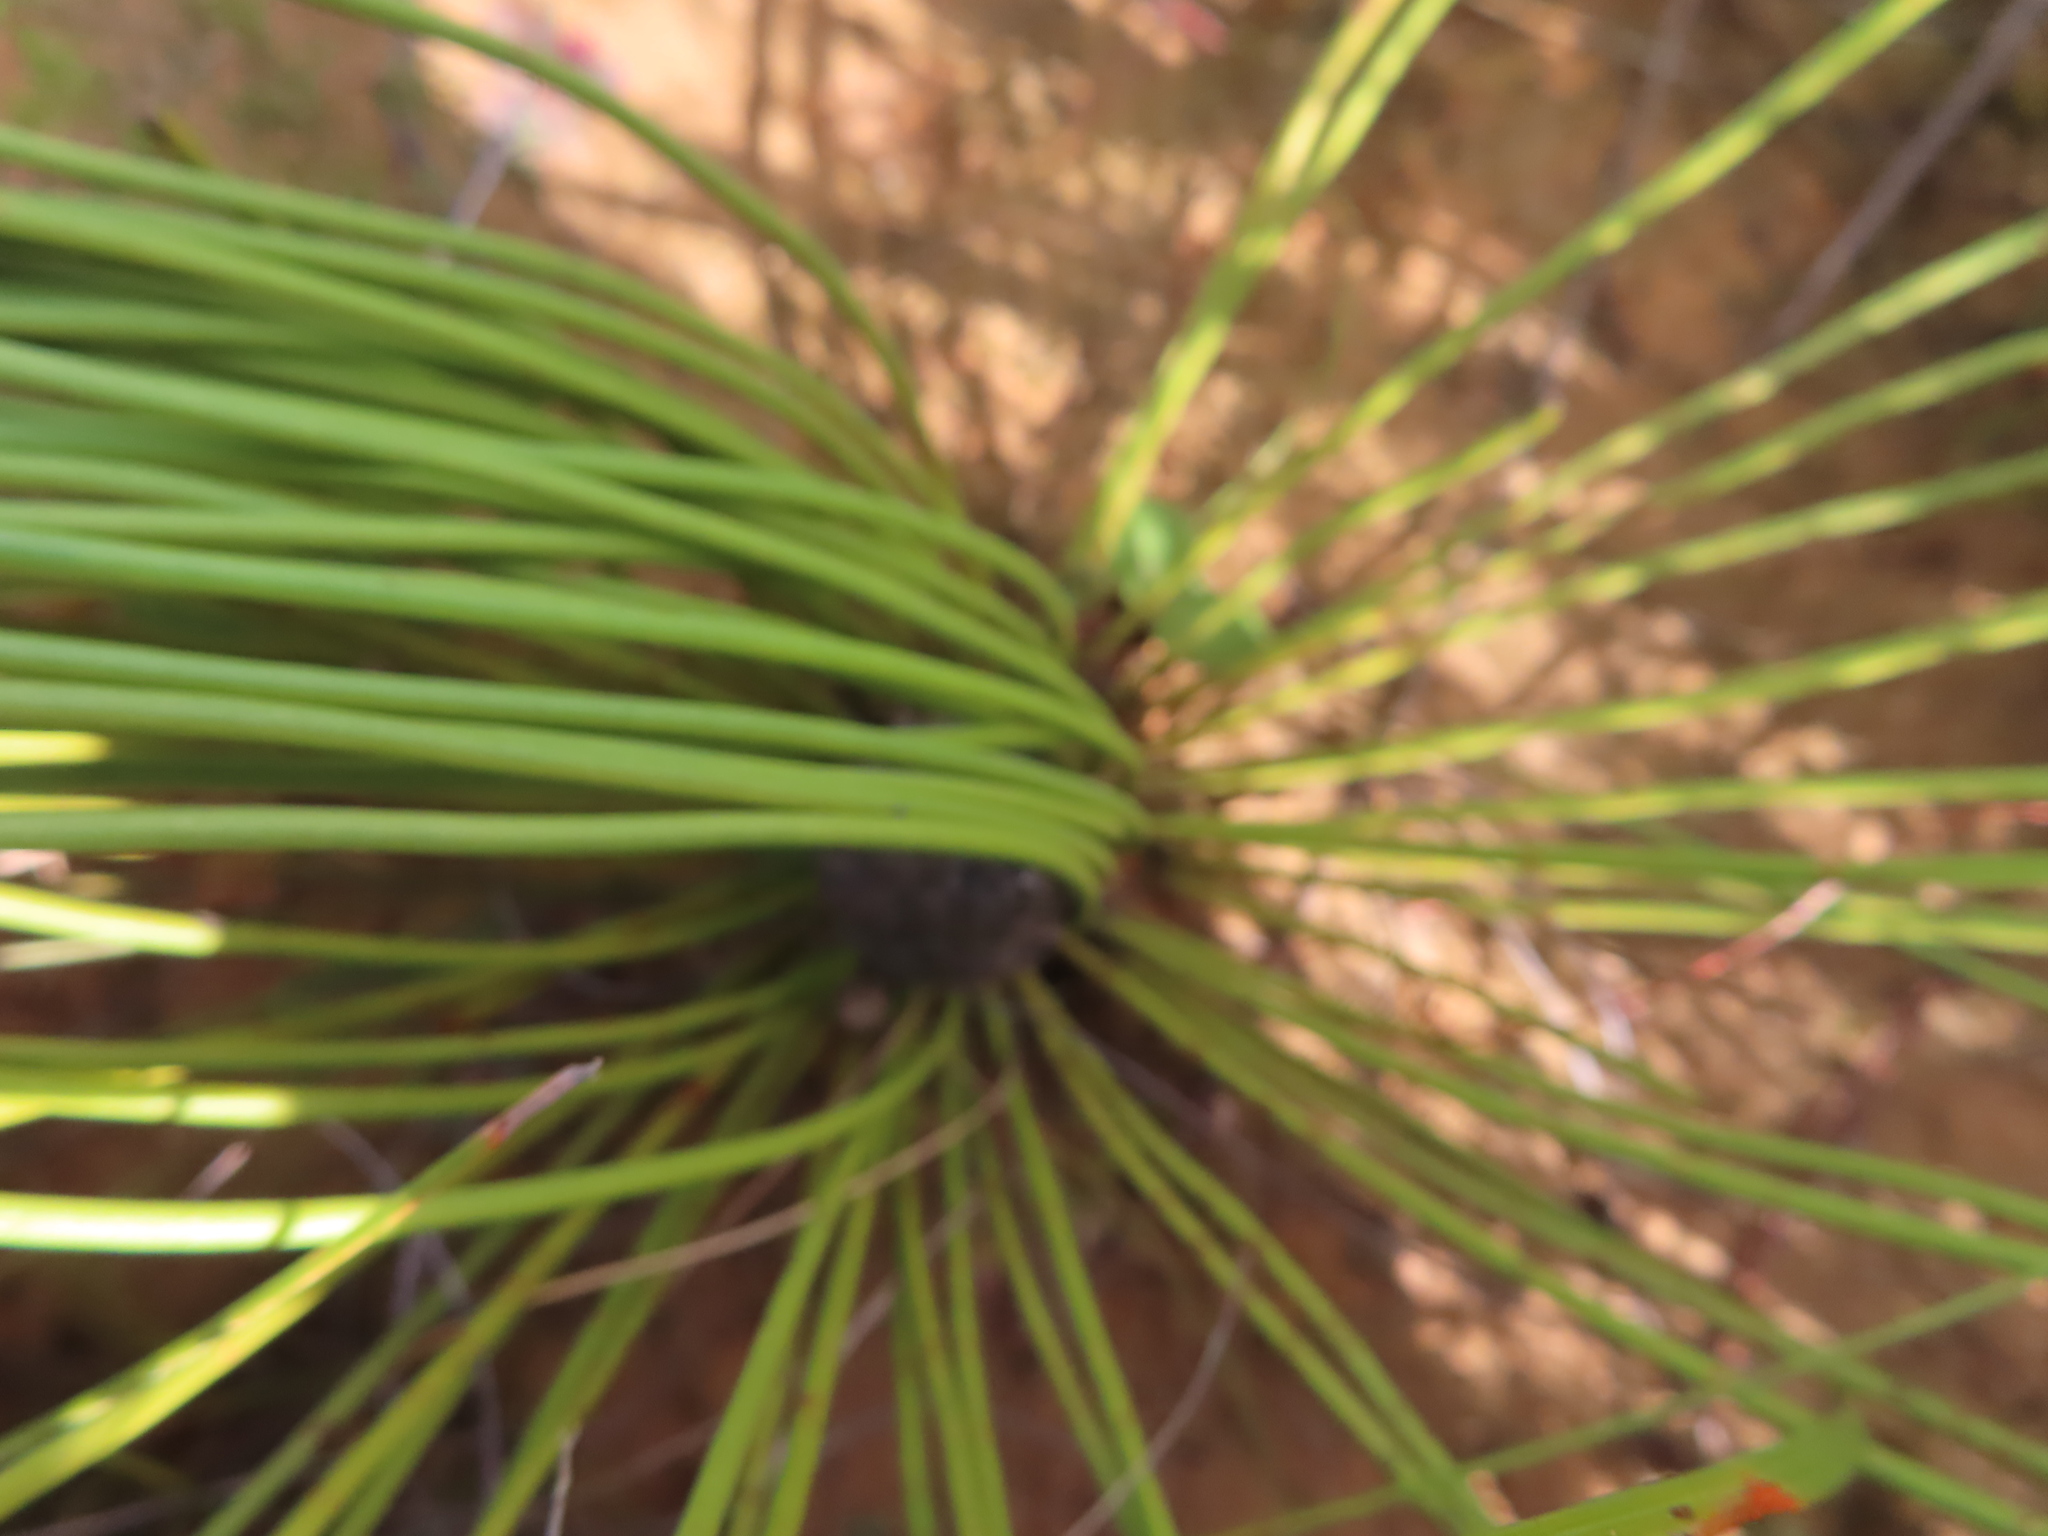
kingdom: Plantae
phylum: Tracheophyta
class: Magnoliopsida
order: Proteales
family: Proteaceae
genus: Protea
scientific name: Protea lorea
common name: Thong-leaf sugarbush
